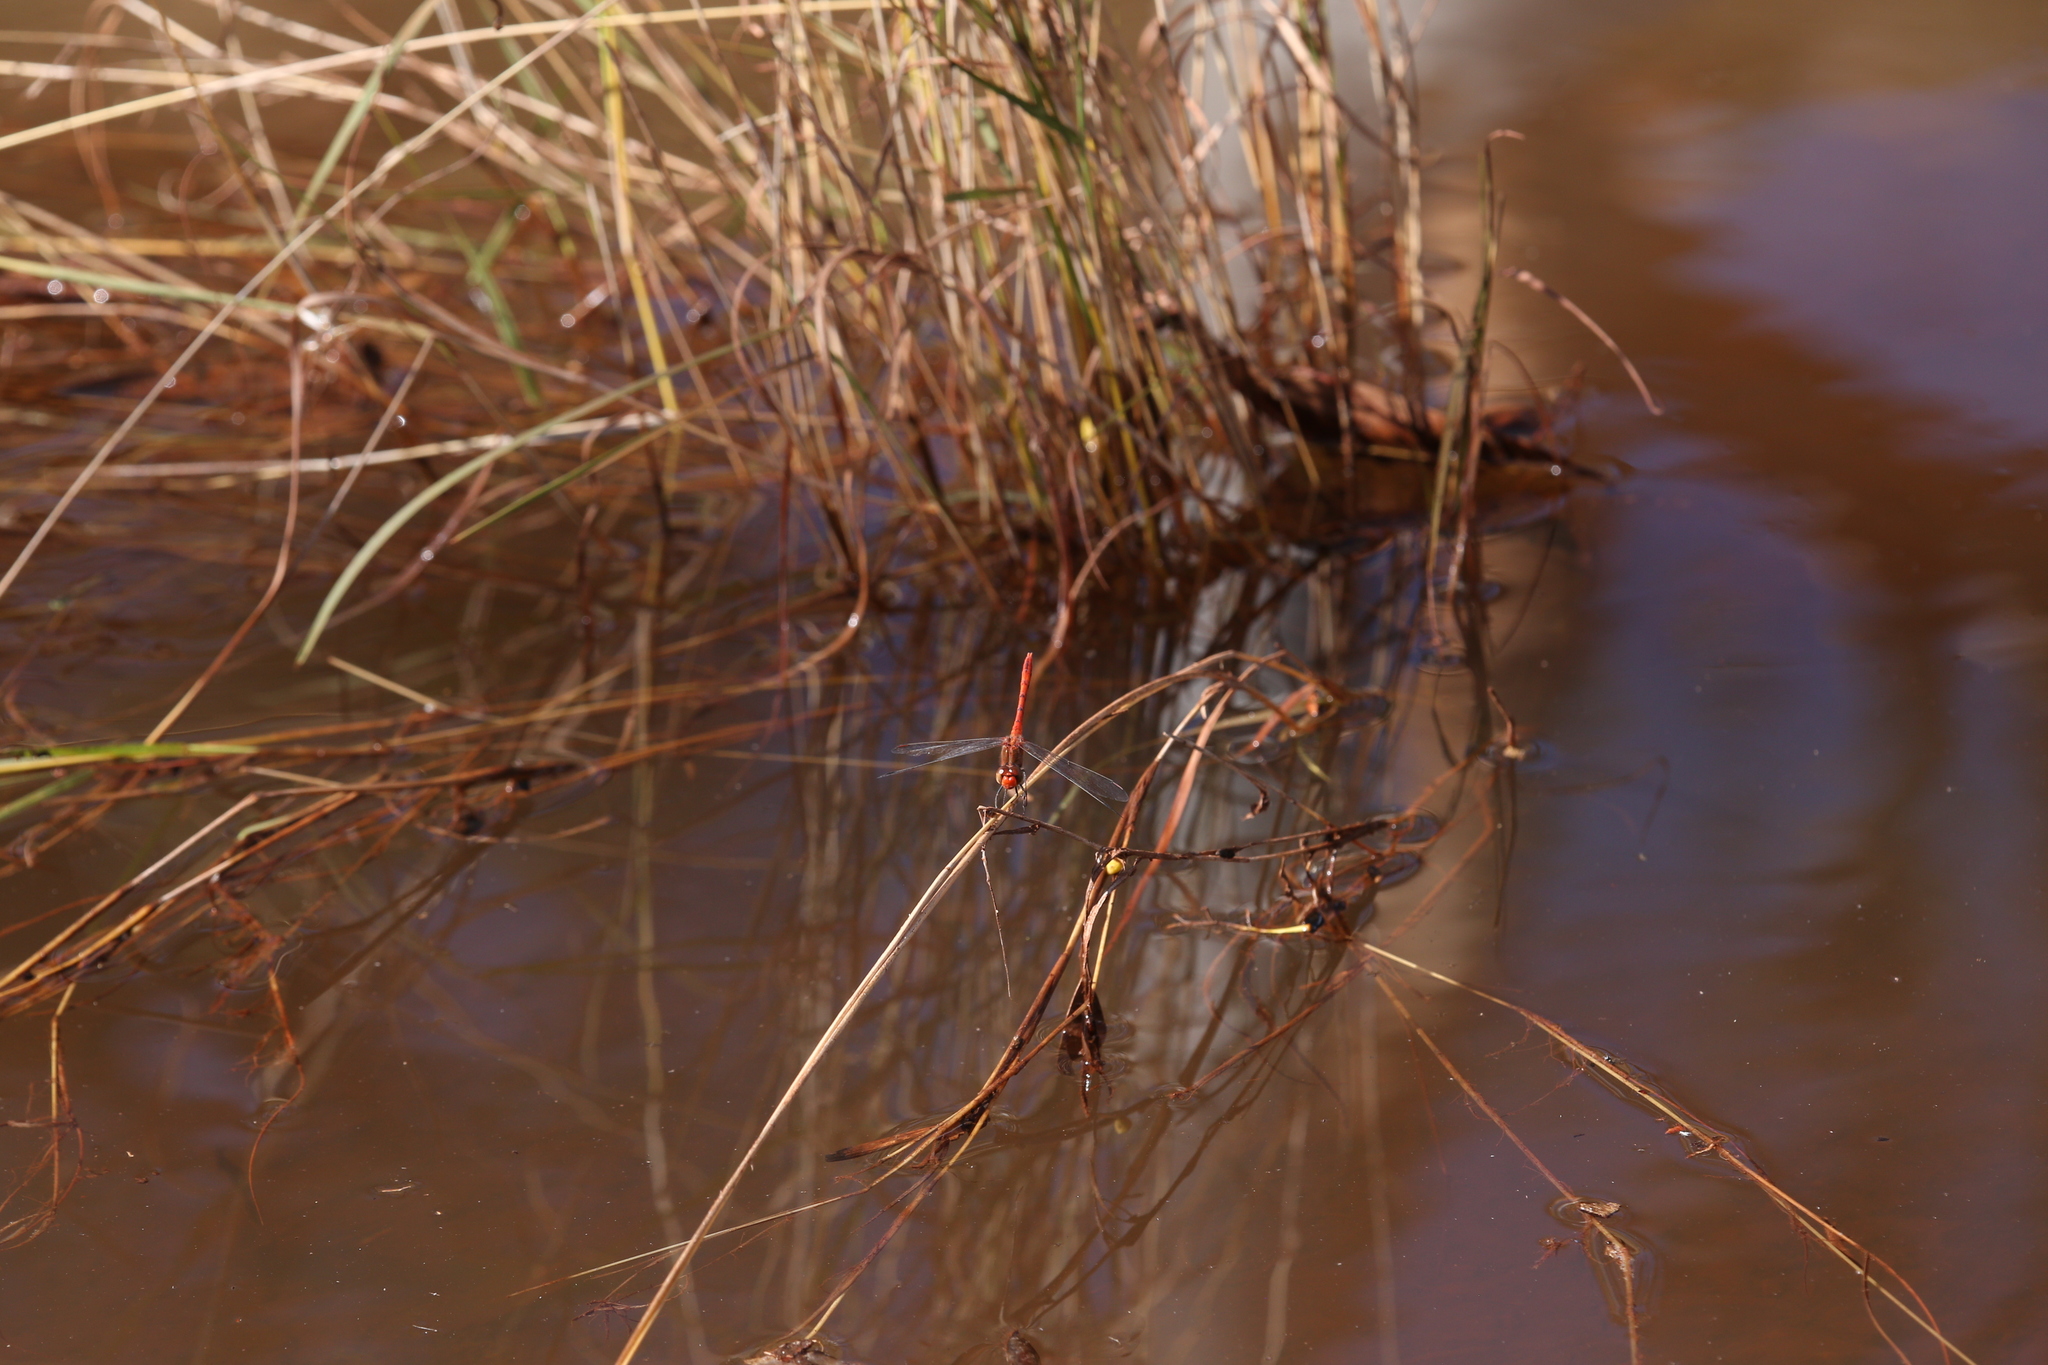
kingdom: Animalia
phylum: Arthropoda
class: Insecta
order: Odonata
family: Libellulidae
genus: Diplacodes
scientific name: Diplacodes bipunctata
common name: Red percher dragonfly
